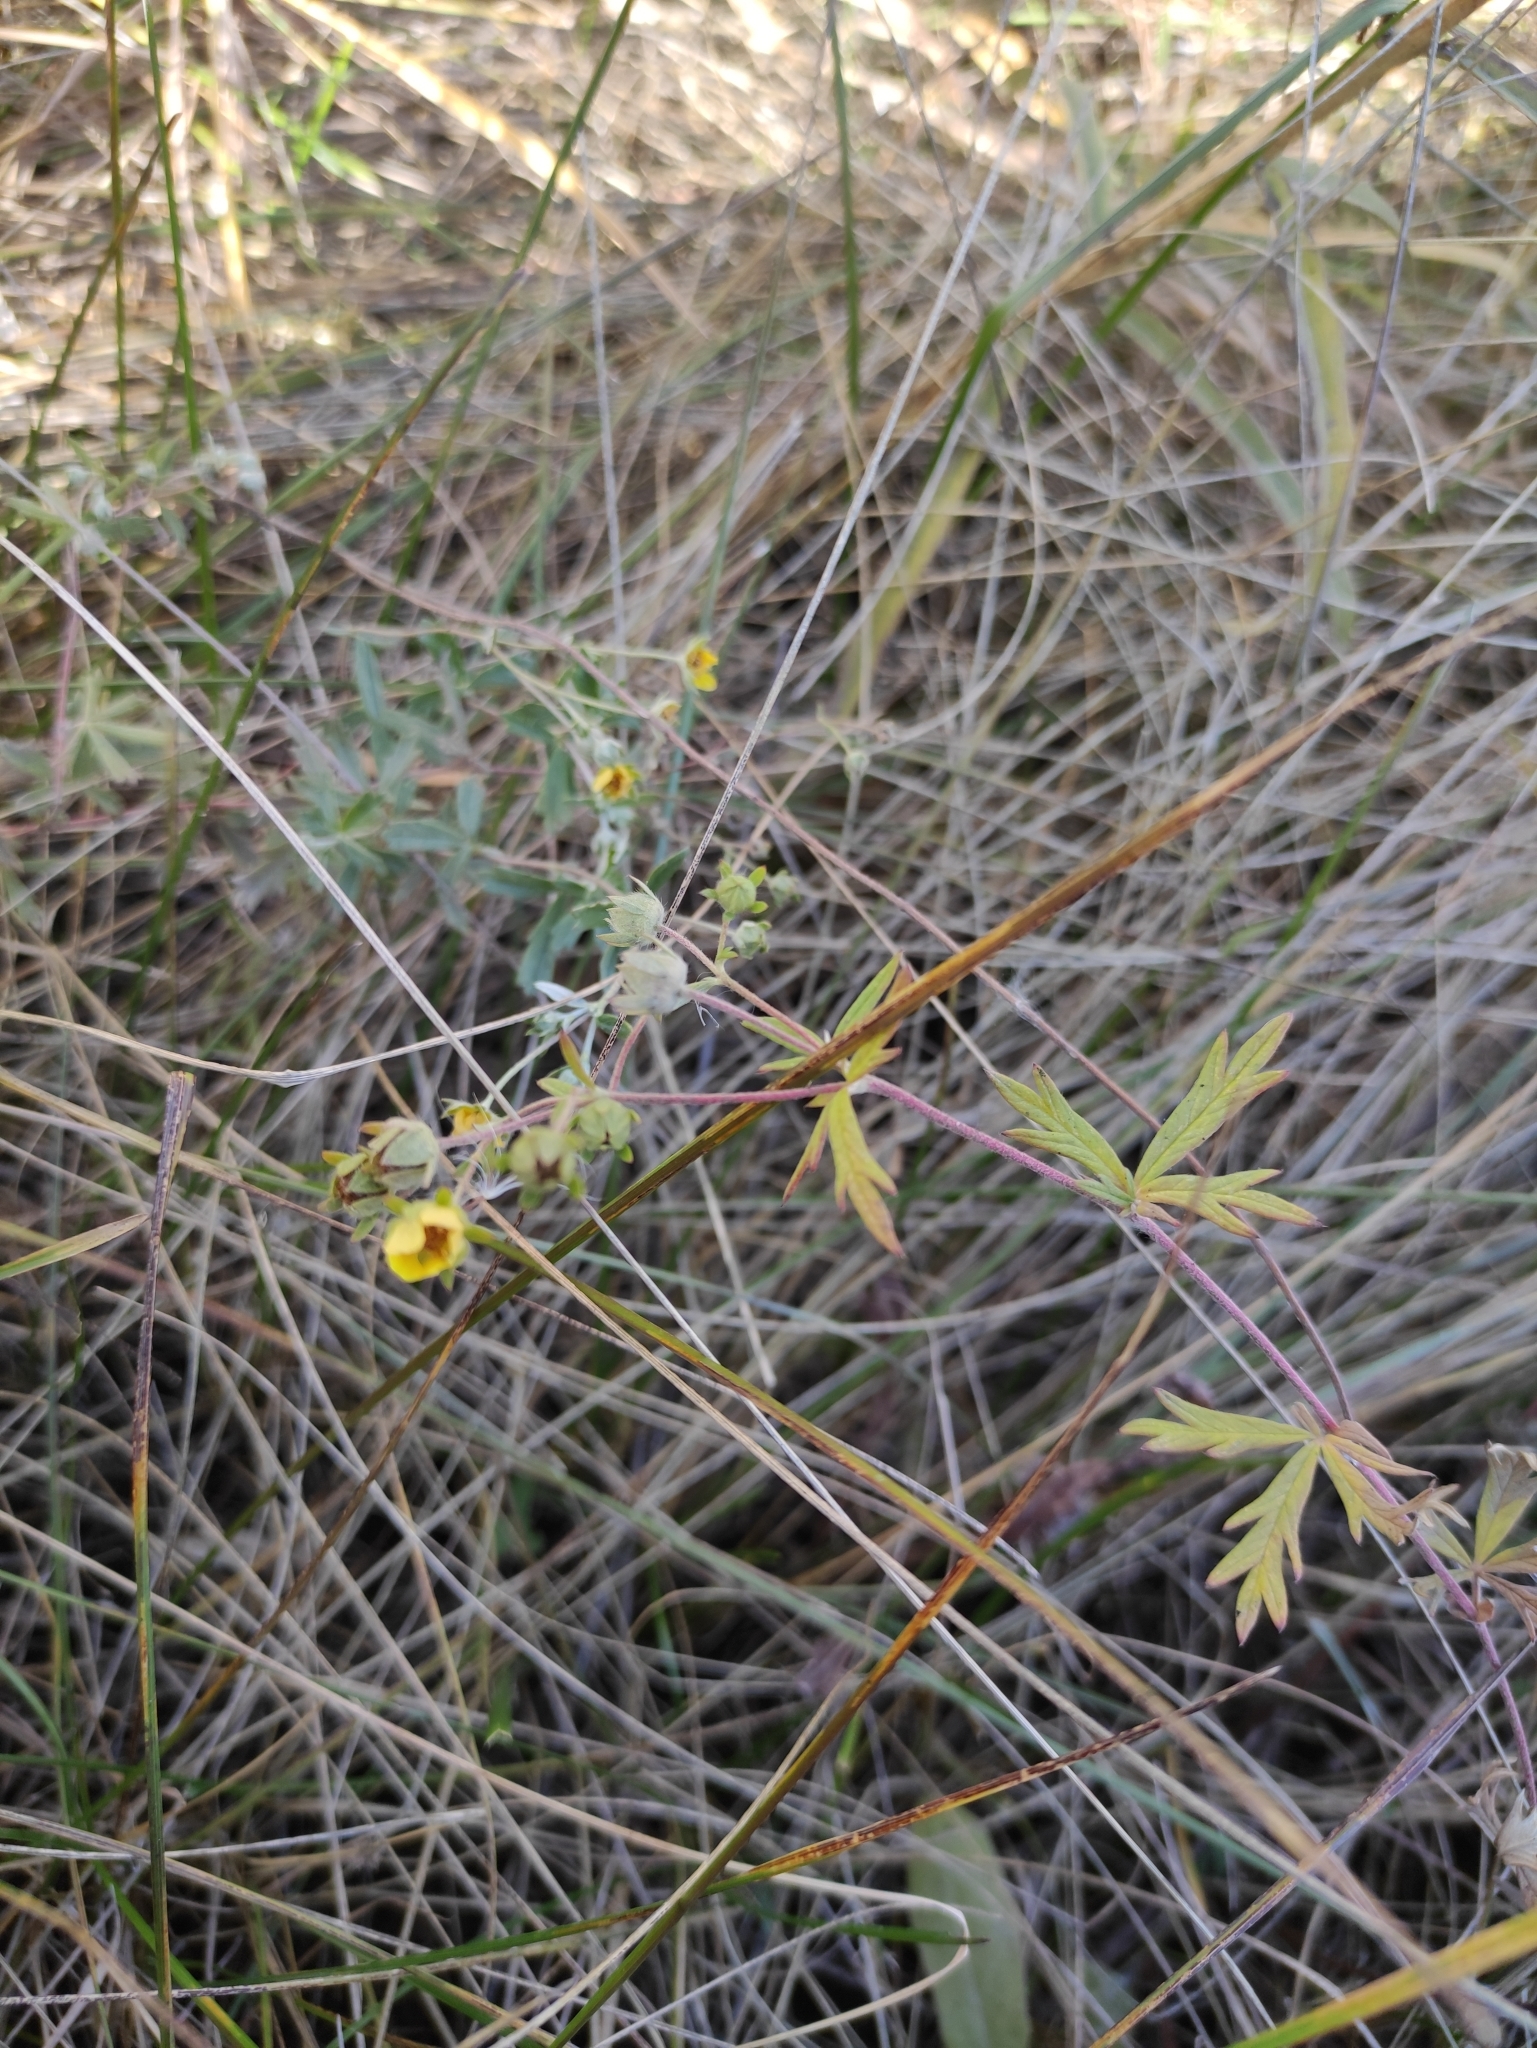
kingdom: Plantae
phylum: Tracheophyta
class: Magnoliopsida
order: Rosales
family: Rosaceae
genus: Potentilla
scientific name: Potentilla argentea
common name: Hoary cinquefoil
